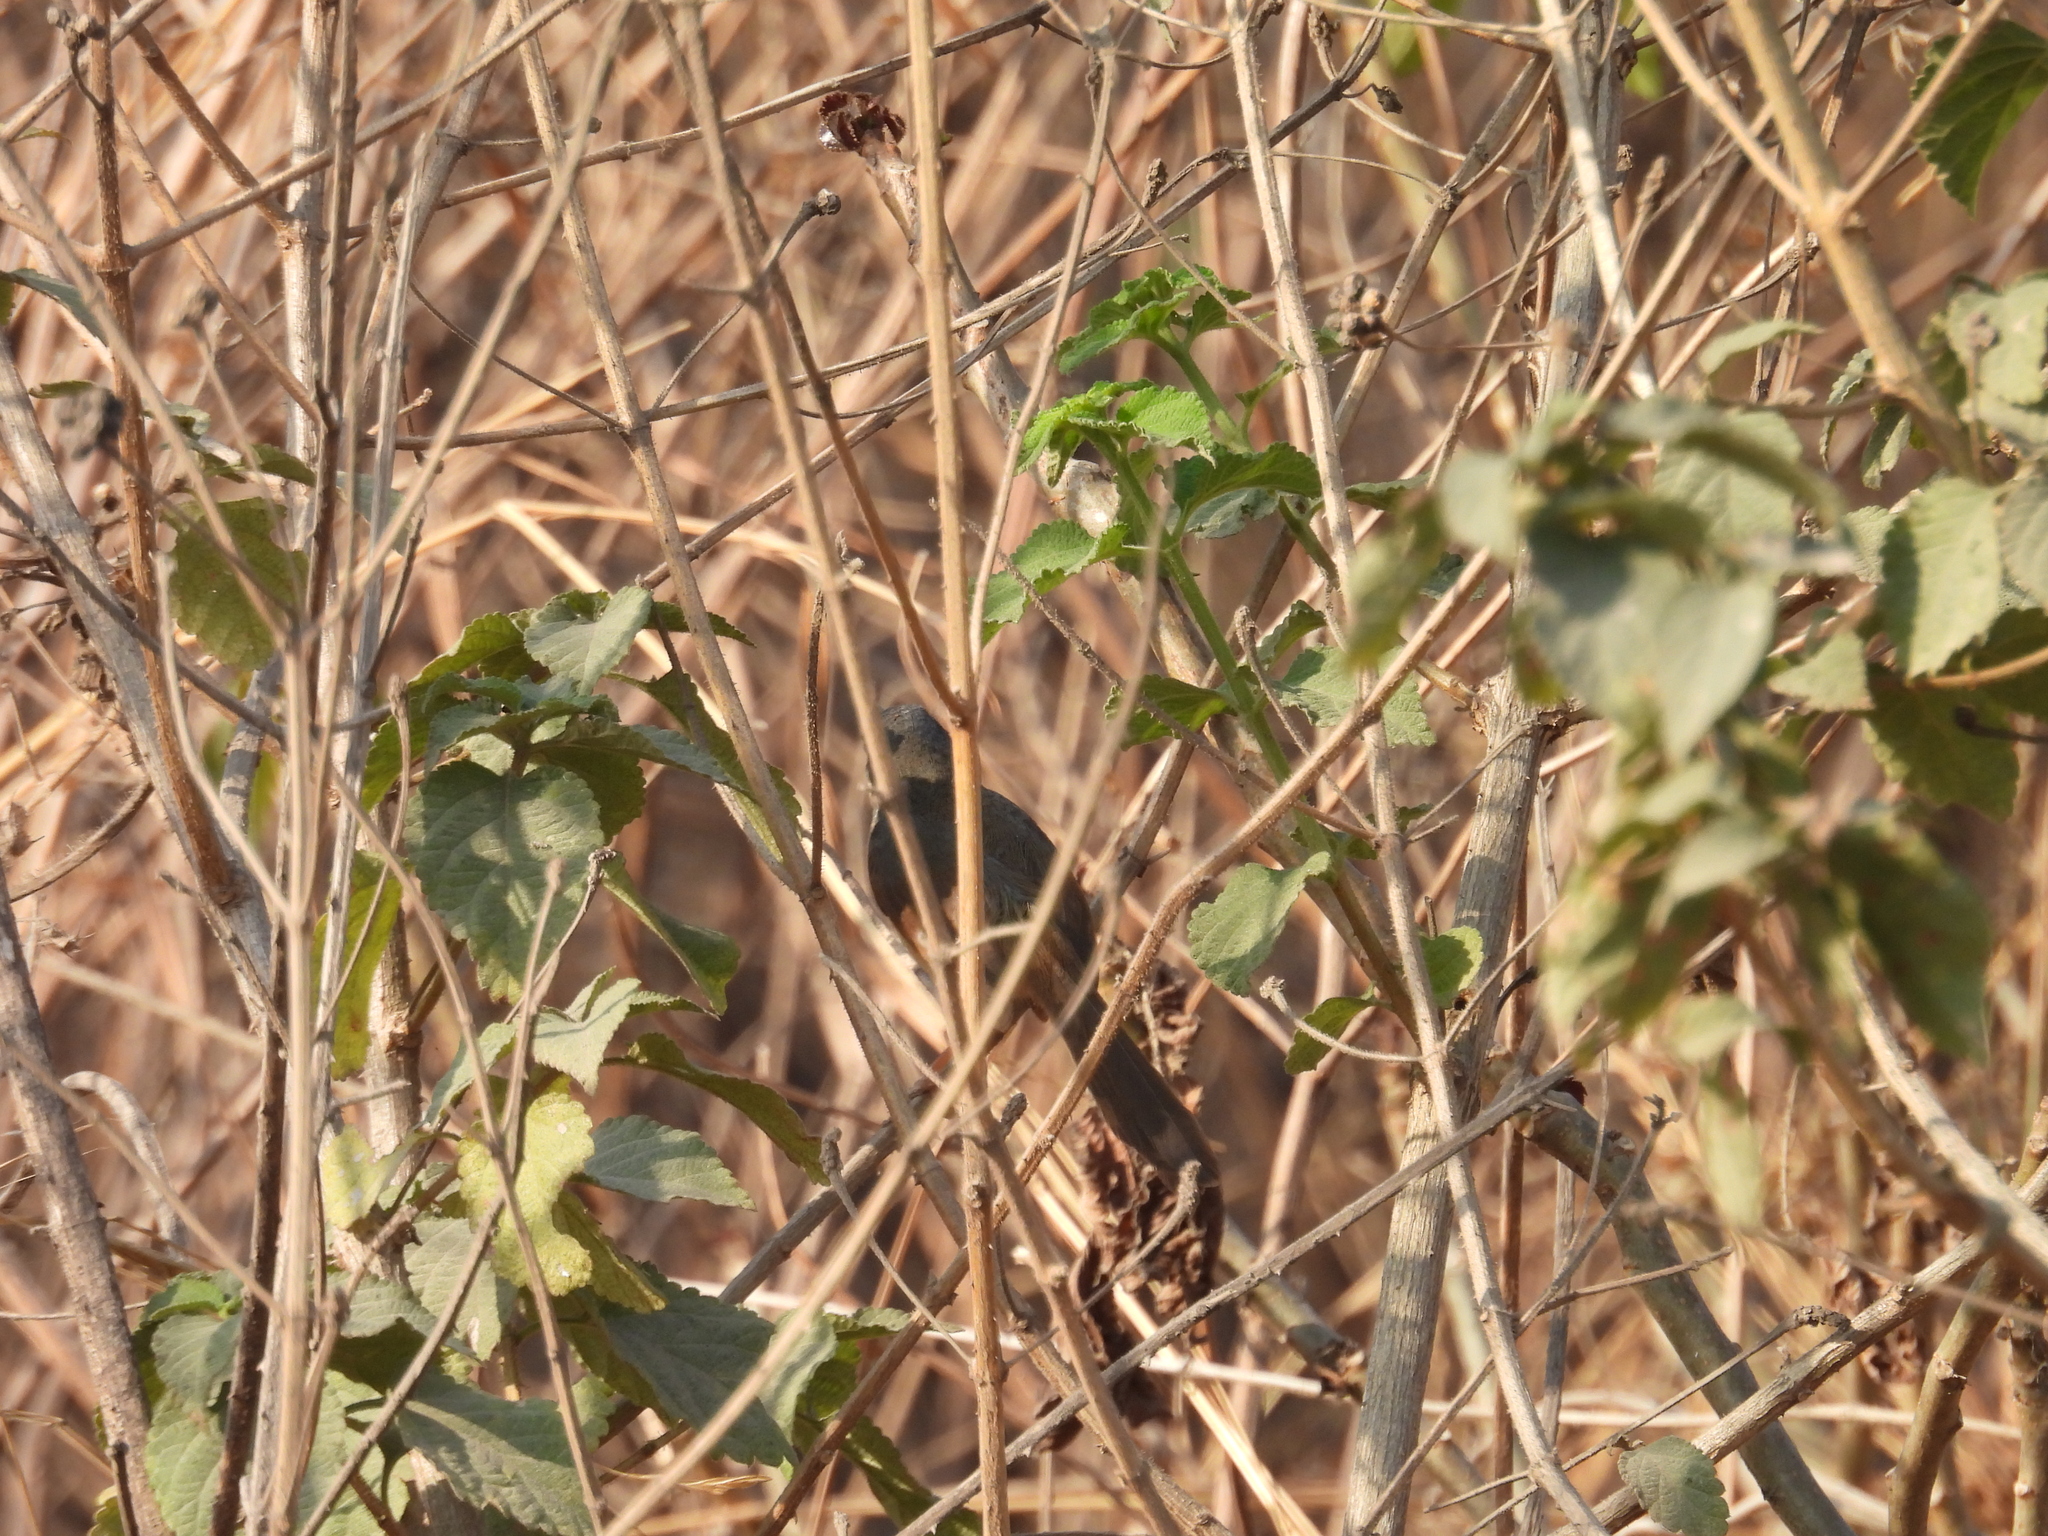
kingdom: Animalia
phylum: Chordata
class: Aves
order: Passeriformes
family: Cisticolidae
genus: Prinia
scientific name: Prinia socialis
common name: Ashy prinia
